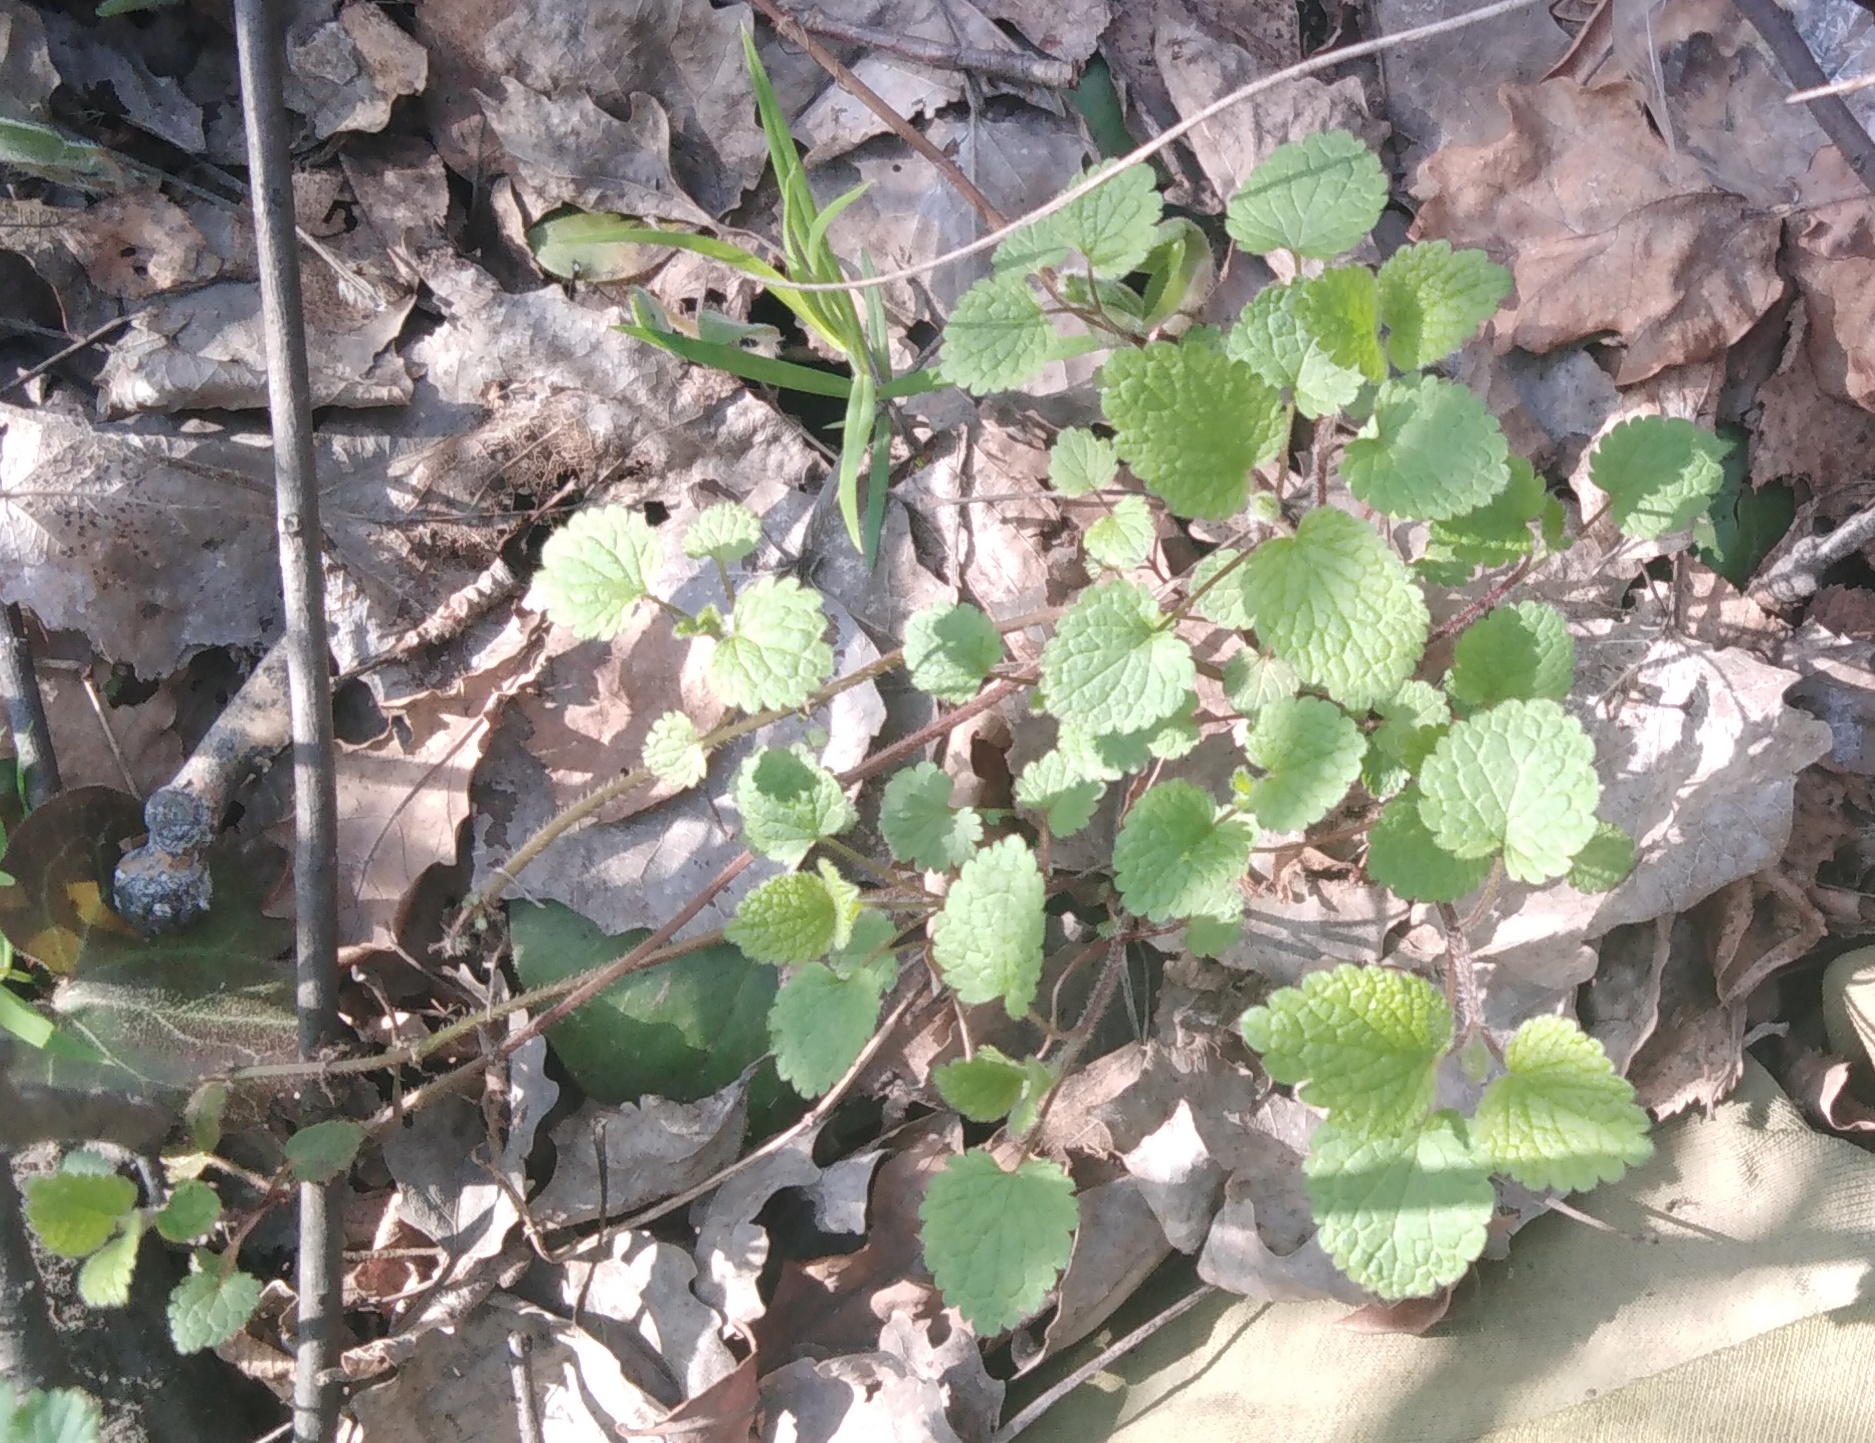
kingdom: Plantae
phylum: Tracheophyta
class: Magnoliopsida
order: Lamiales
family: Lamiaceae
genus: Lamium
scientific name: Lamium album
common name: White dead-nettle
